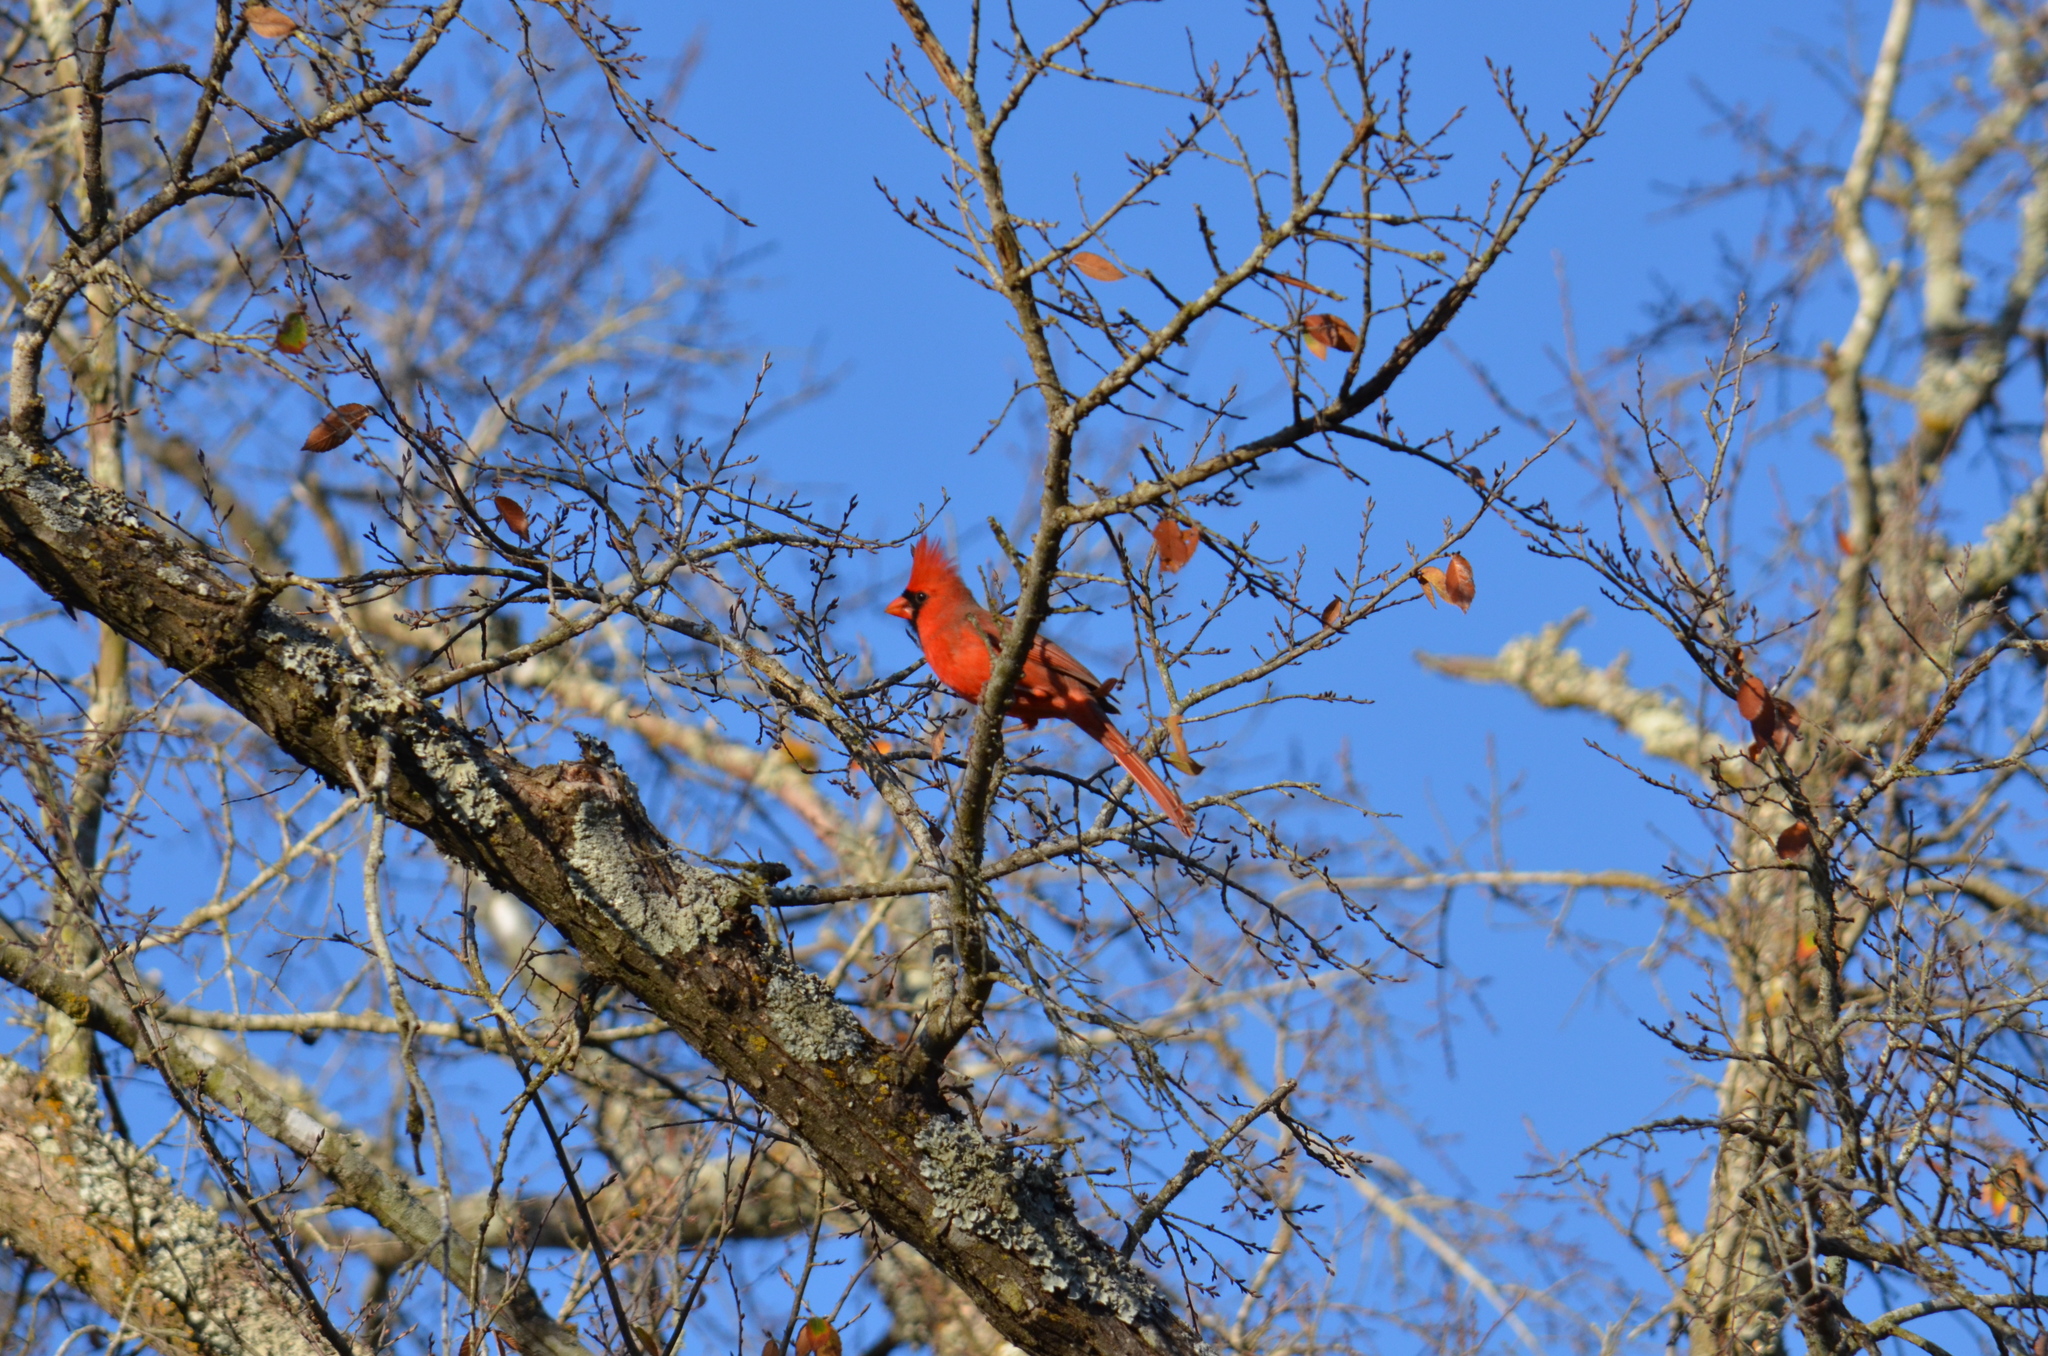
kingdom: Animalia
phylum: Chordata
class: Aves
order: Passeriformes
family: Cardinalidae
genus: Cardinalis
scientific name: Cardinalis cardinalis
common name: Northern cardinal
